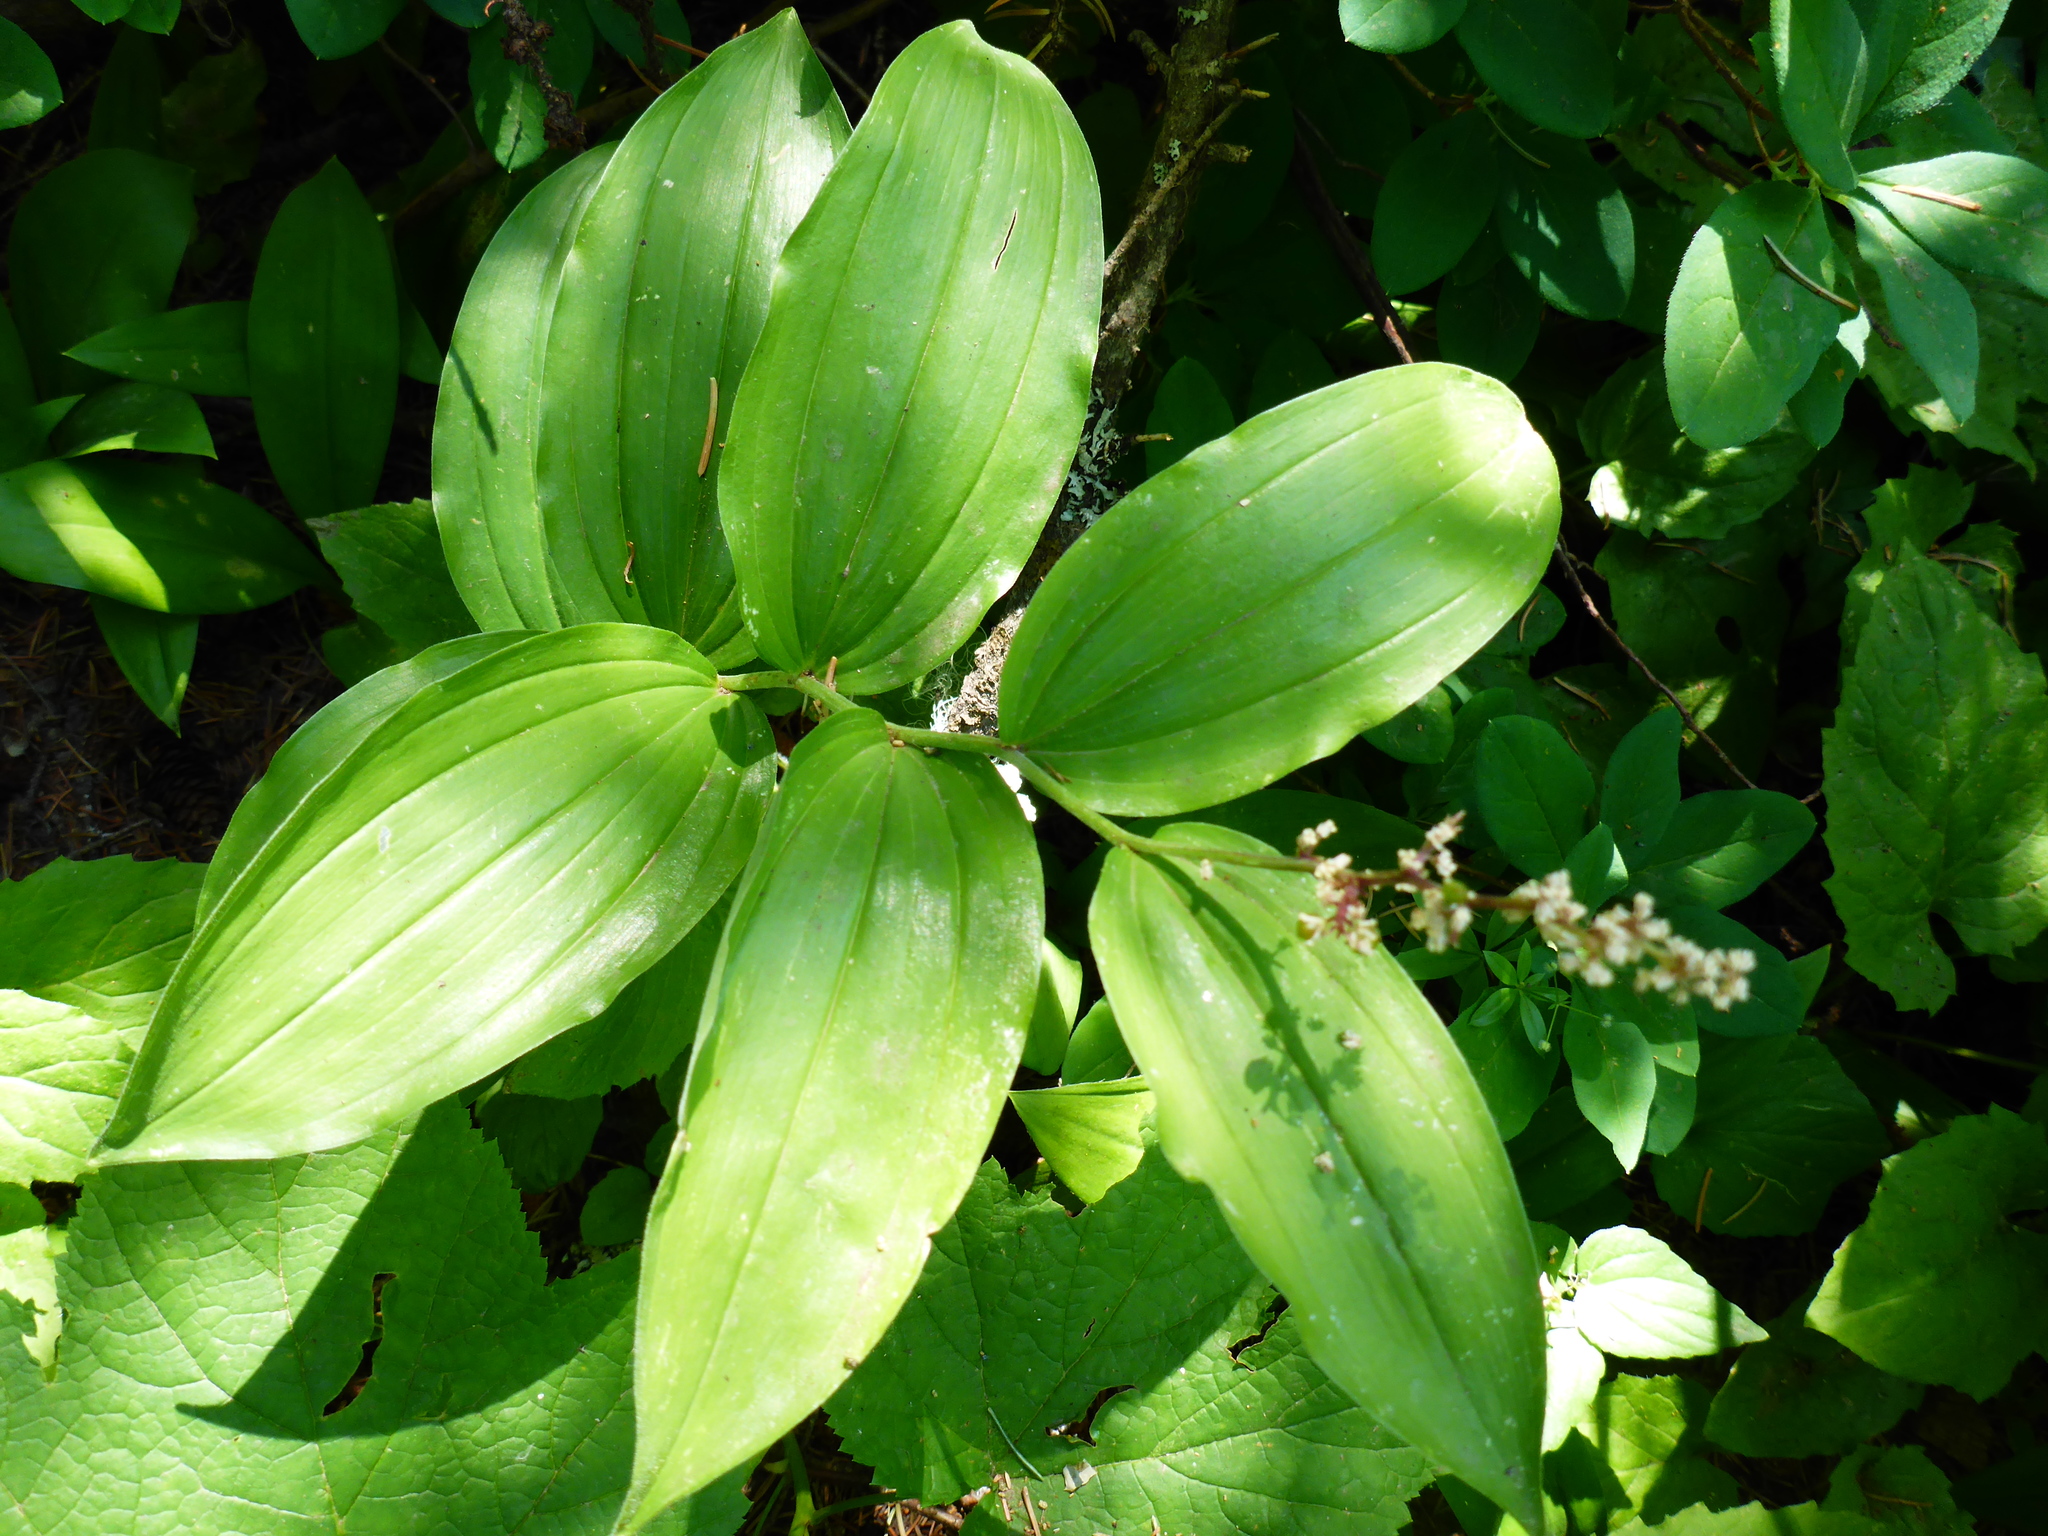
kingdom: Plantae
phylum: Tracheophyta
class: Liliopsida
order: Asparagales
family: Asparagaceae
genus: Maianthemum
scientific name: Maianthemum racemosum
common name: False spikenard
